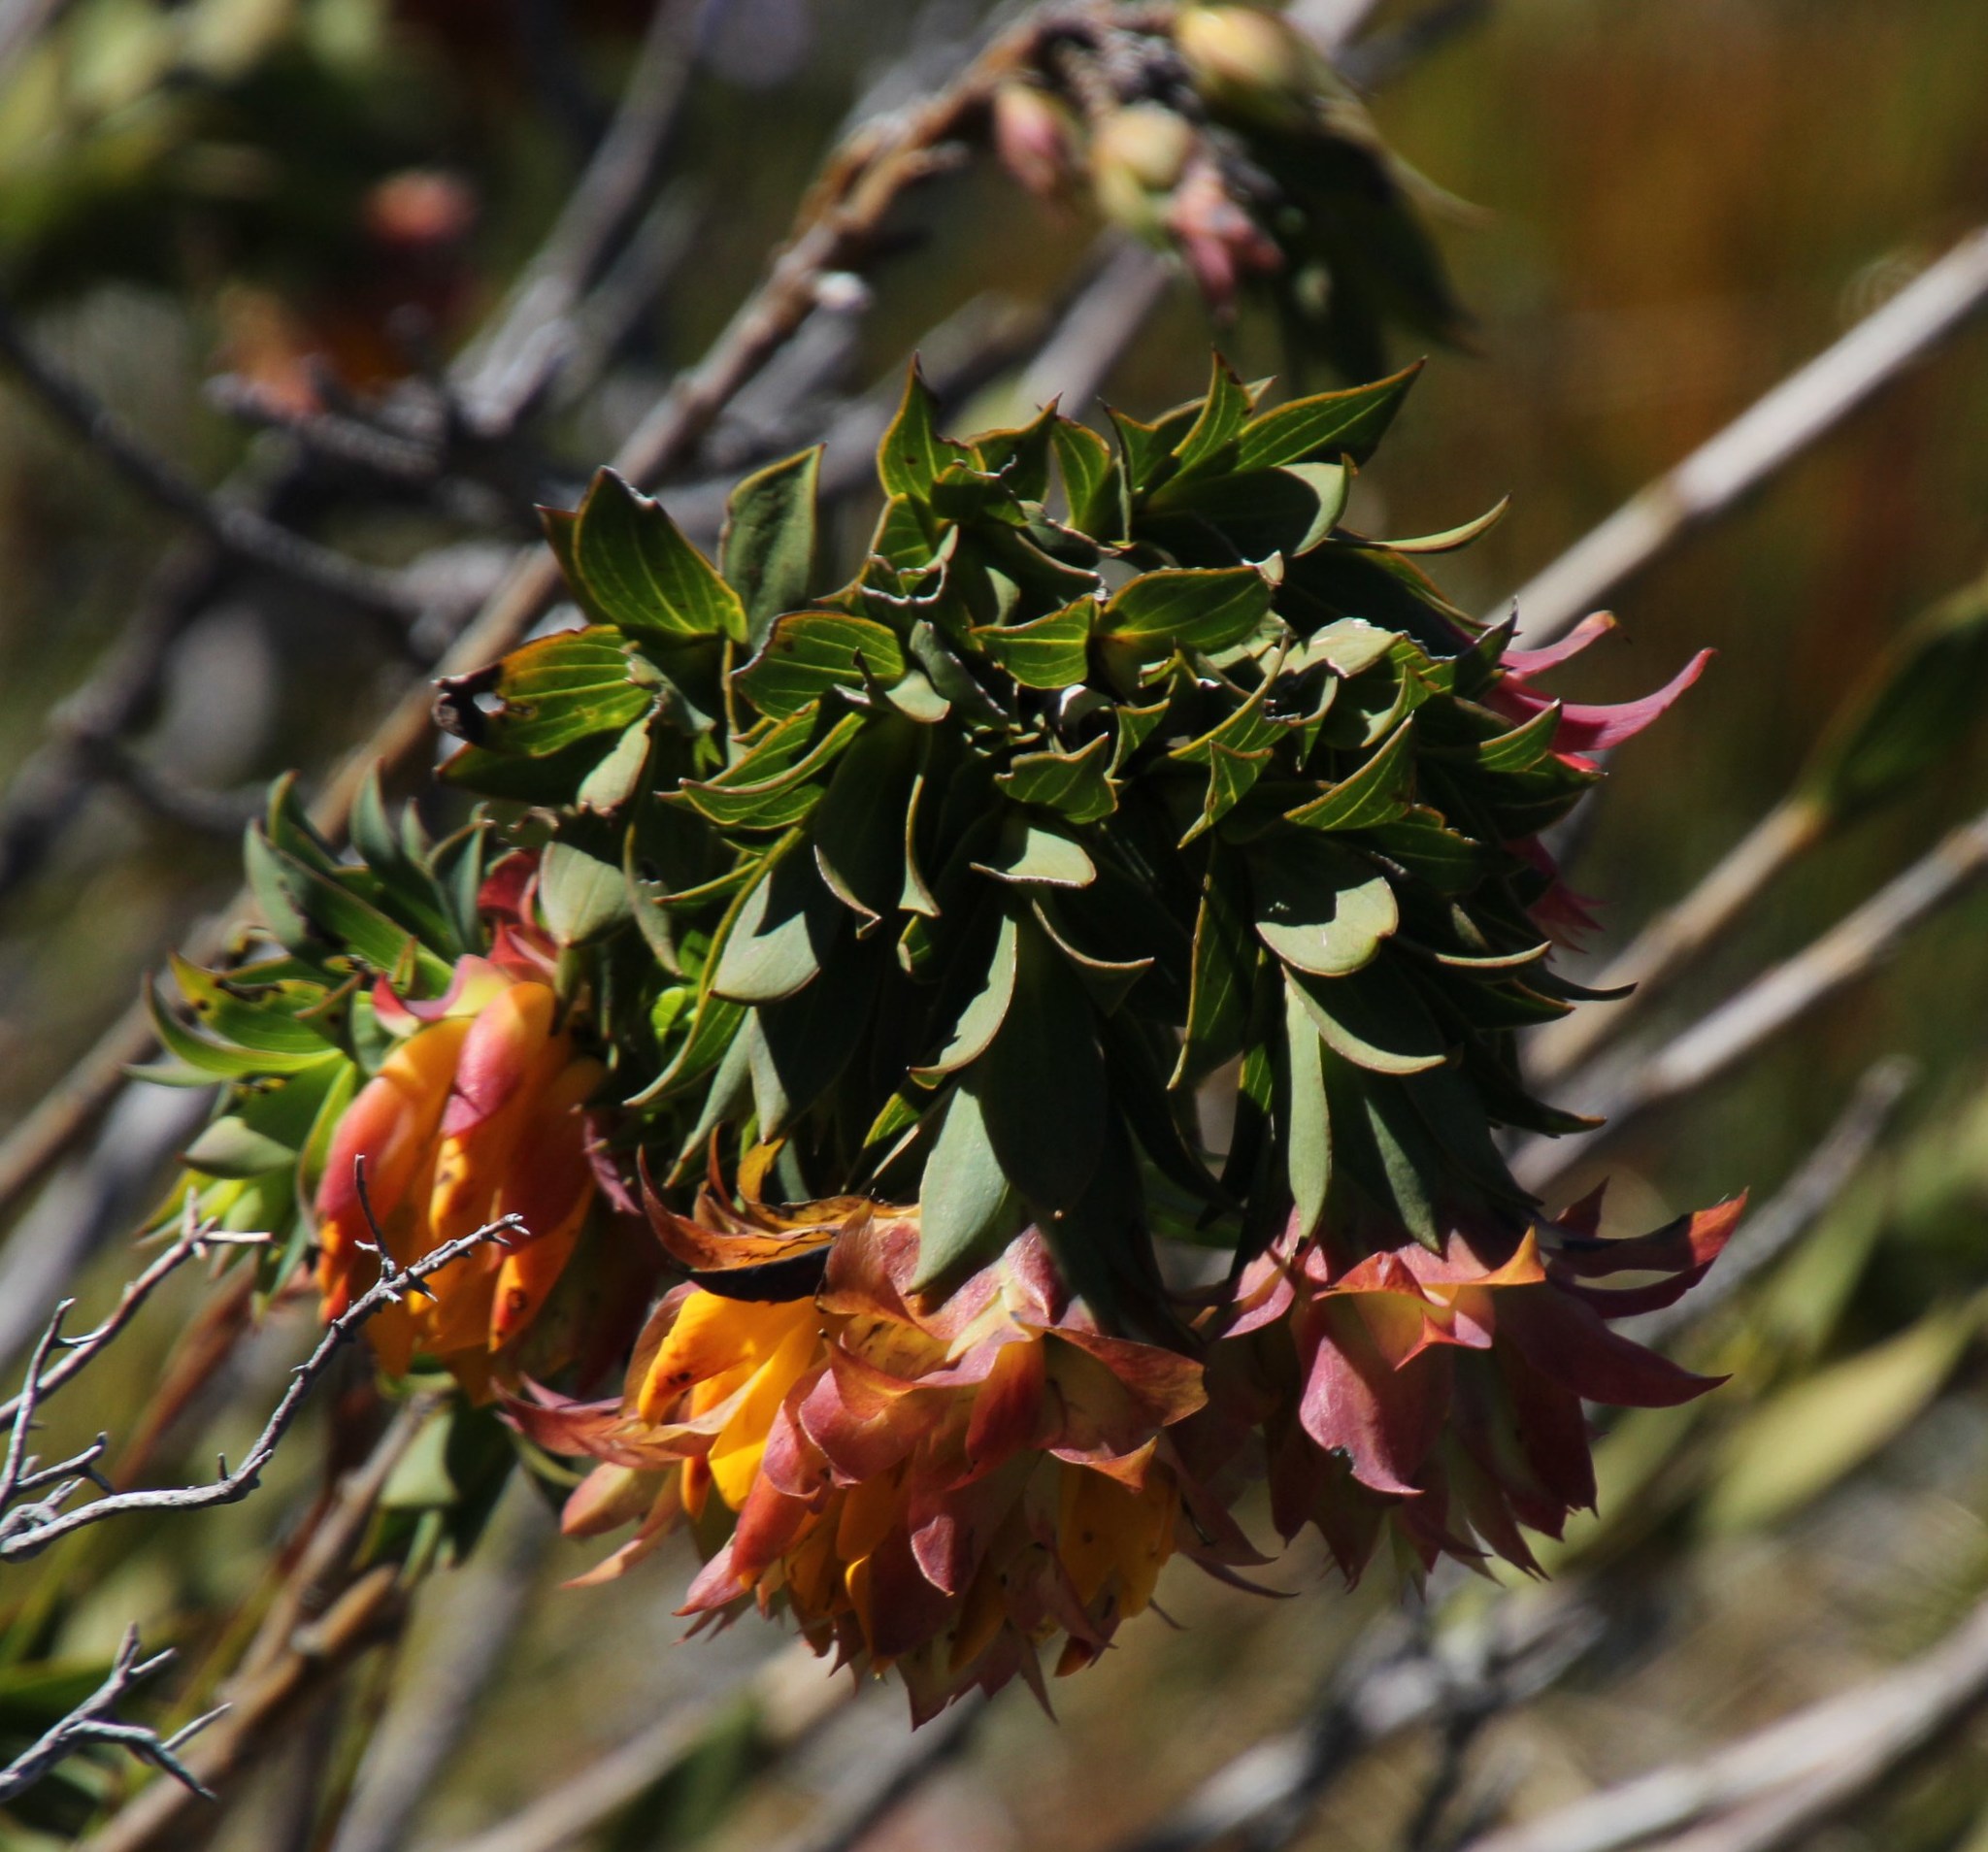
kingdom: Plantae
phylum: Tracheophyta
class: Magnoliopsida
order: Fabales
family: Fabaceae
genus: Liparia
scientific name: Liparia splendens
